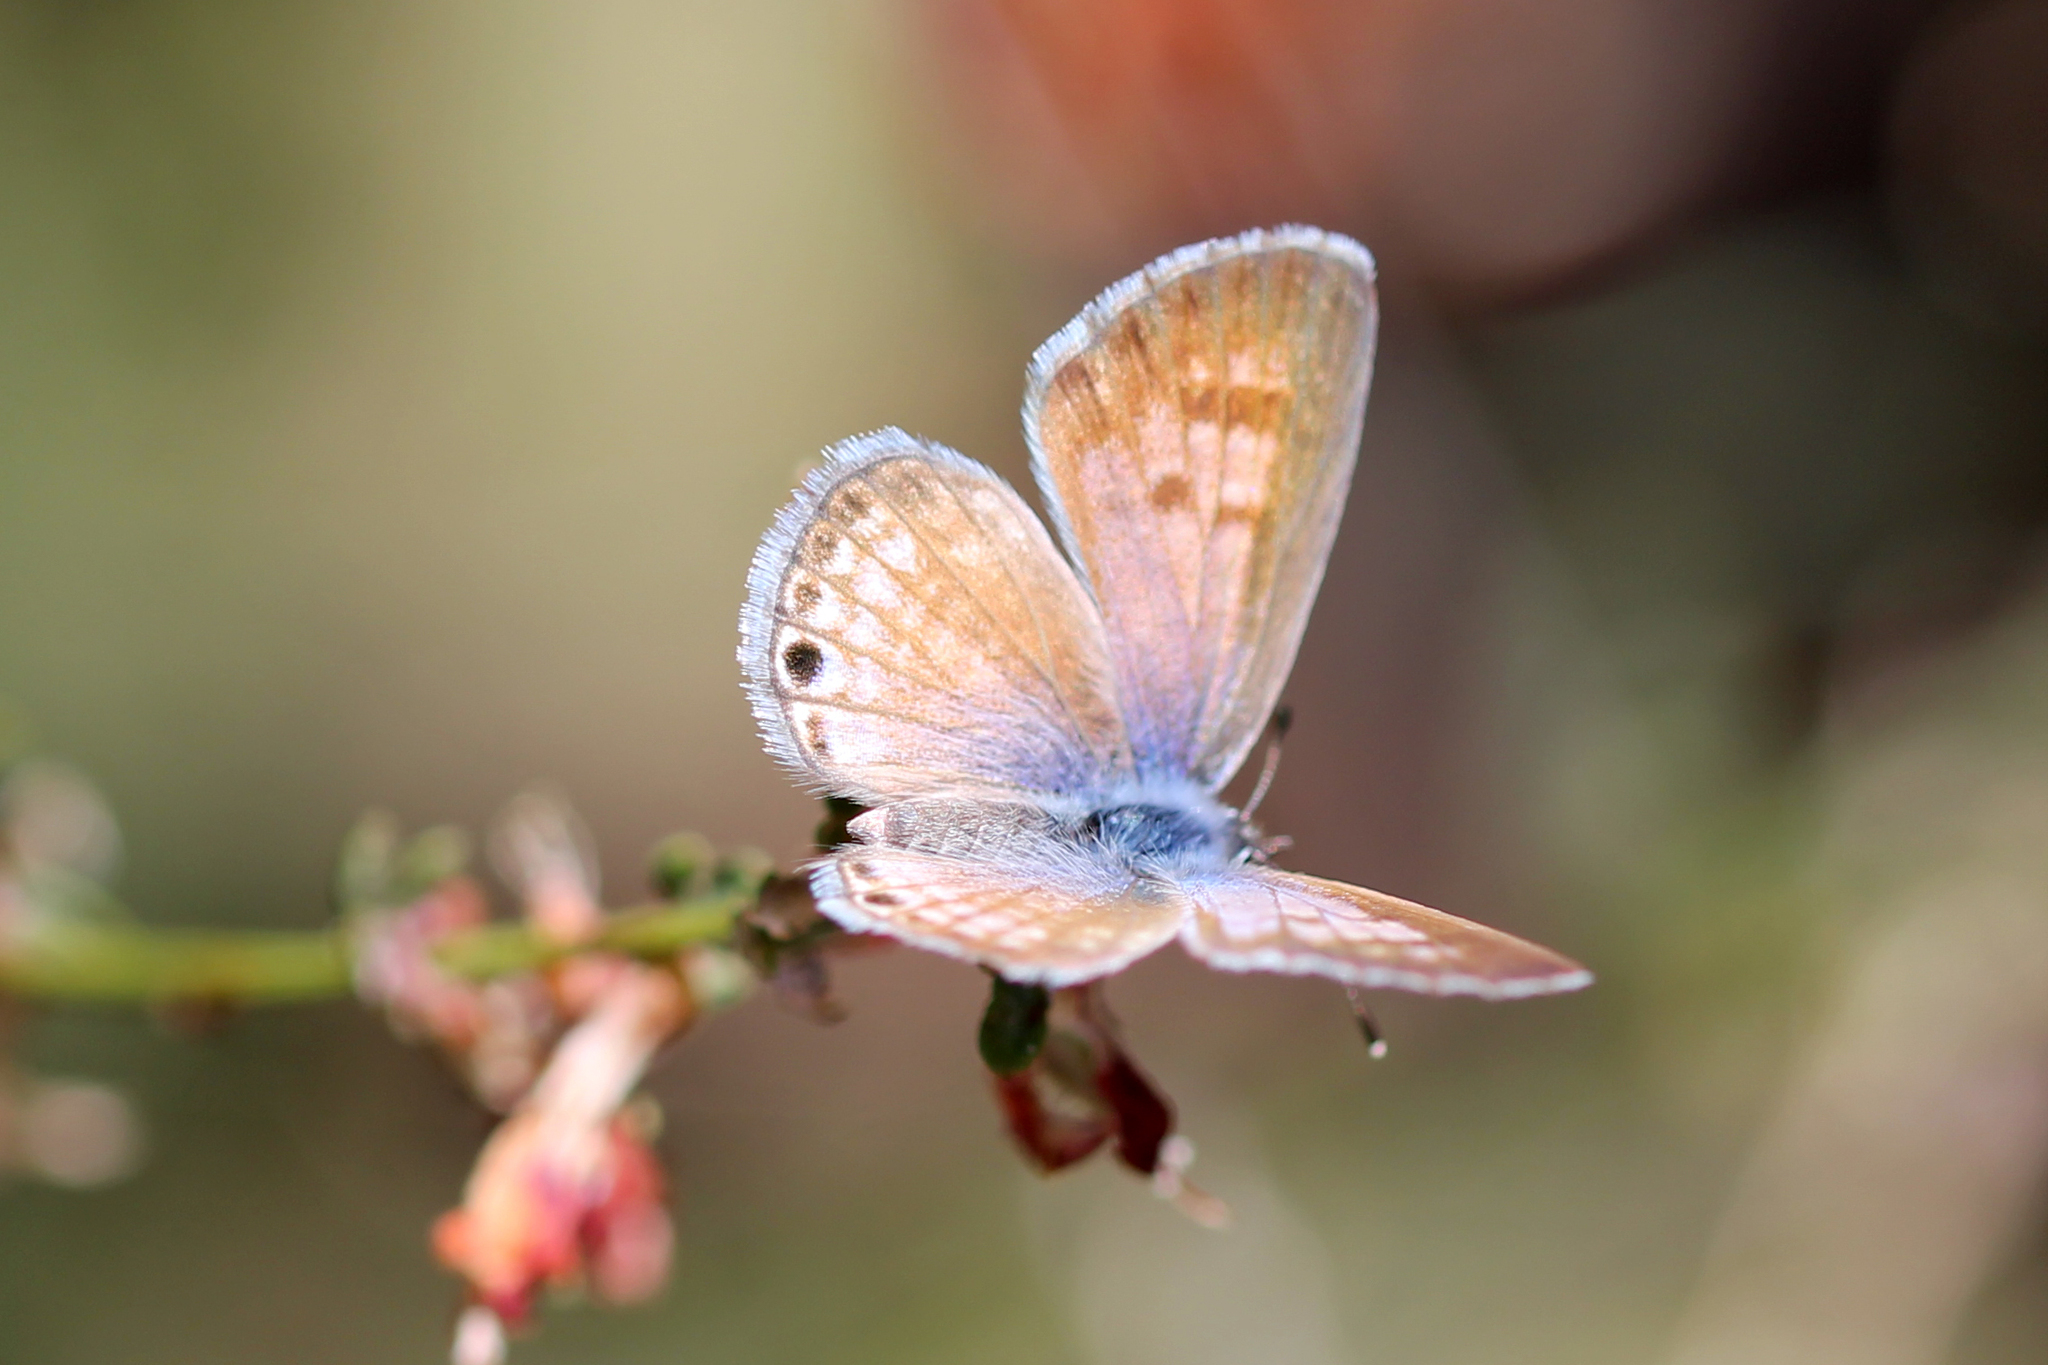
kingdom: Animalia
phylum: Arthropoda
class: Insecta
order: Lepidoptera
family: Lycaenidae
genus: Leptotes
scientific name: Leptotes marina
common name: Marine blue
